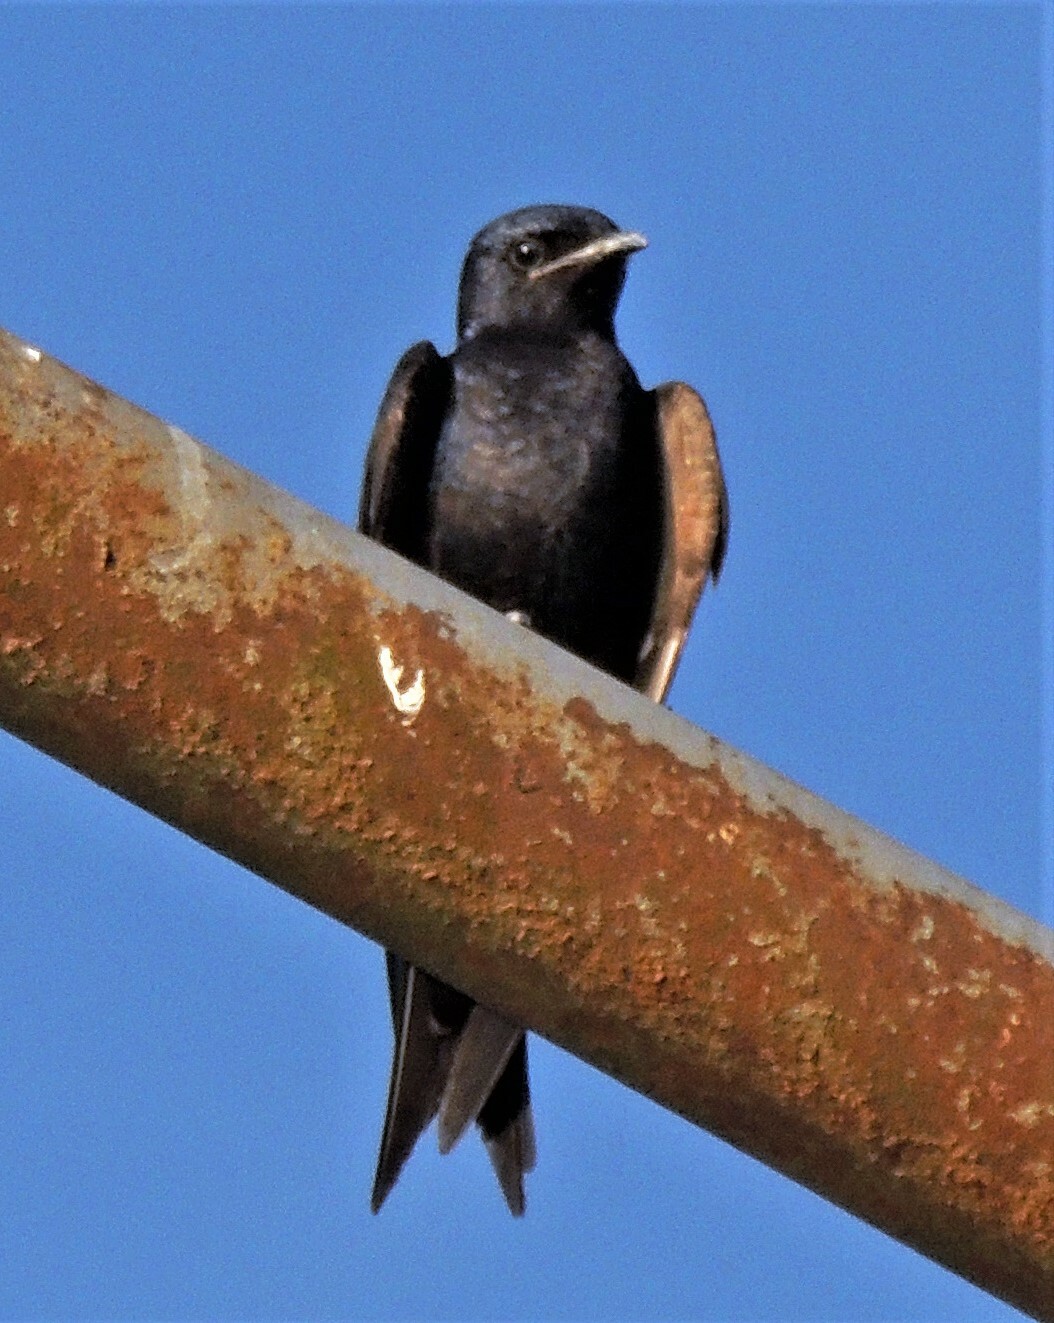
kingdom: Animalia
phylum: Chordata
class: Aves
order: Passeriformes
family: Hirundinidae
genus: Progne
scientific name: Progne elegans
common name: Southern martin
